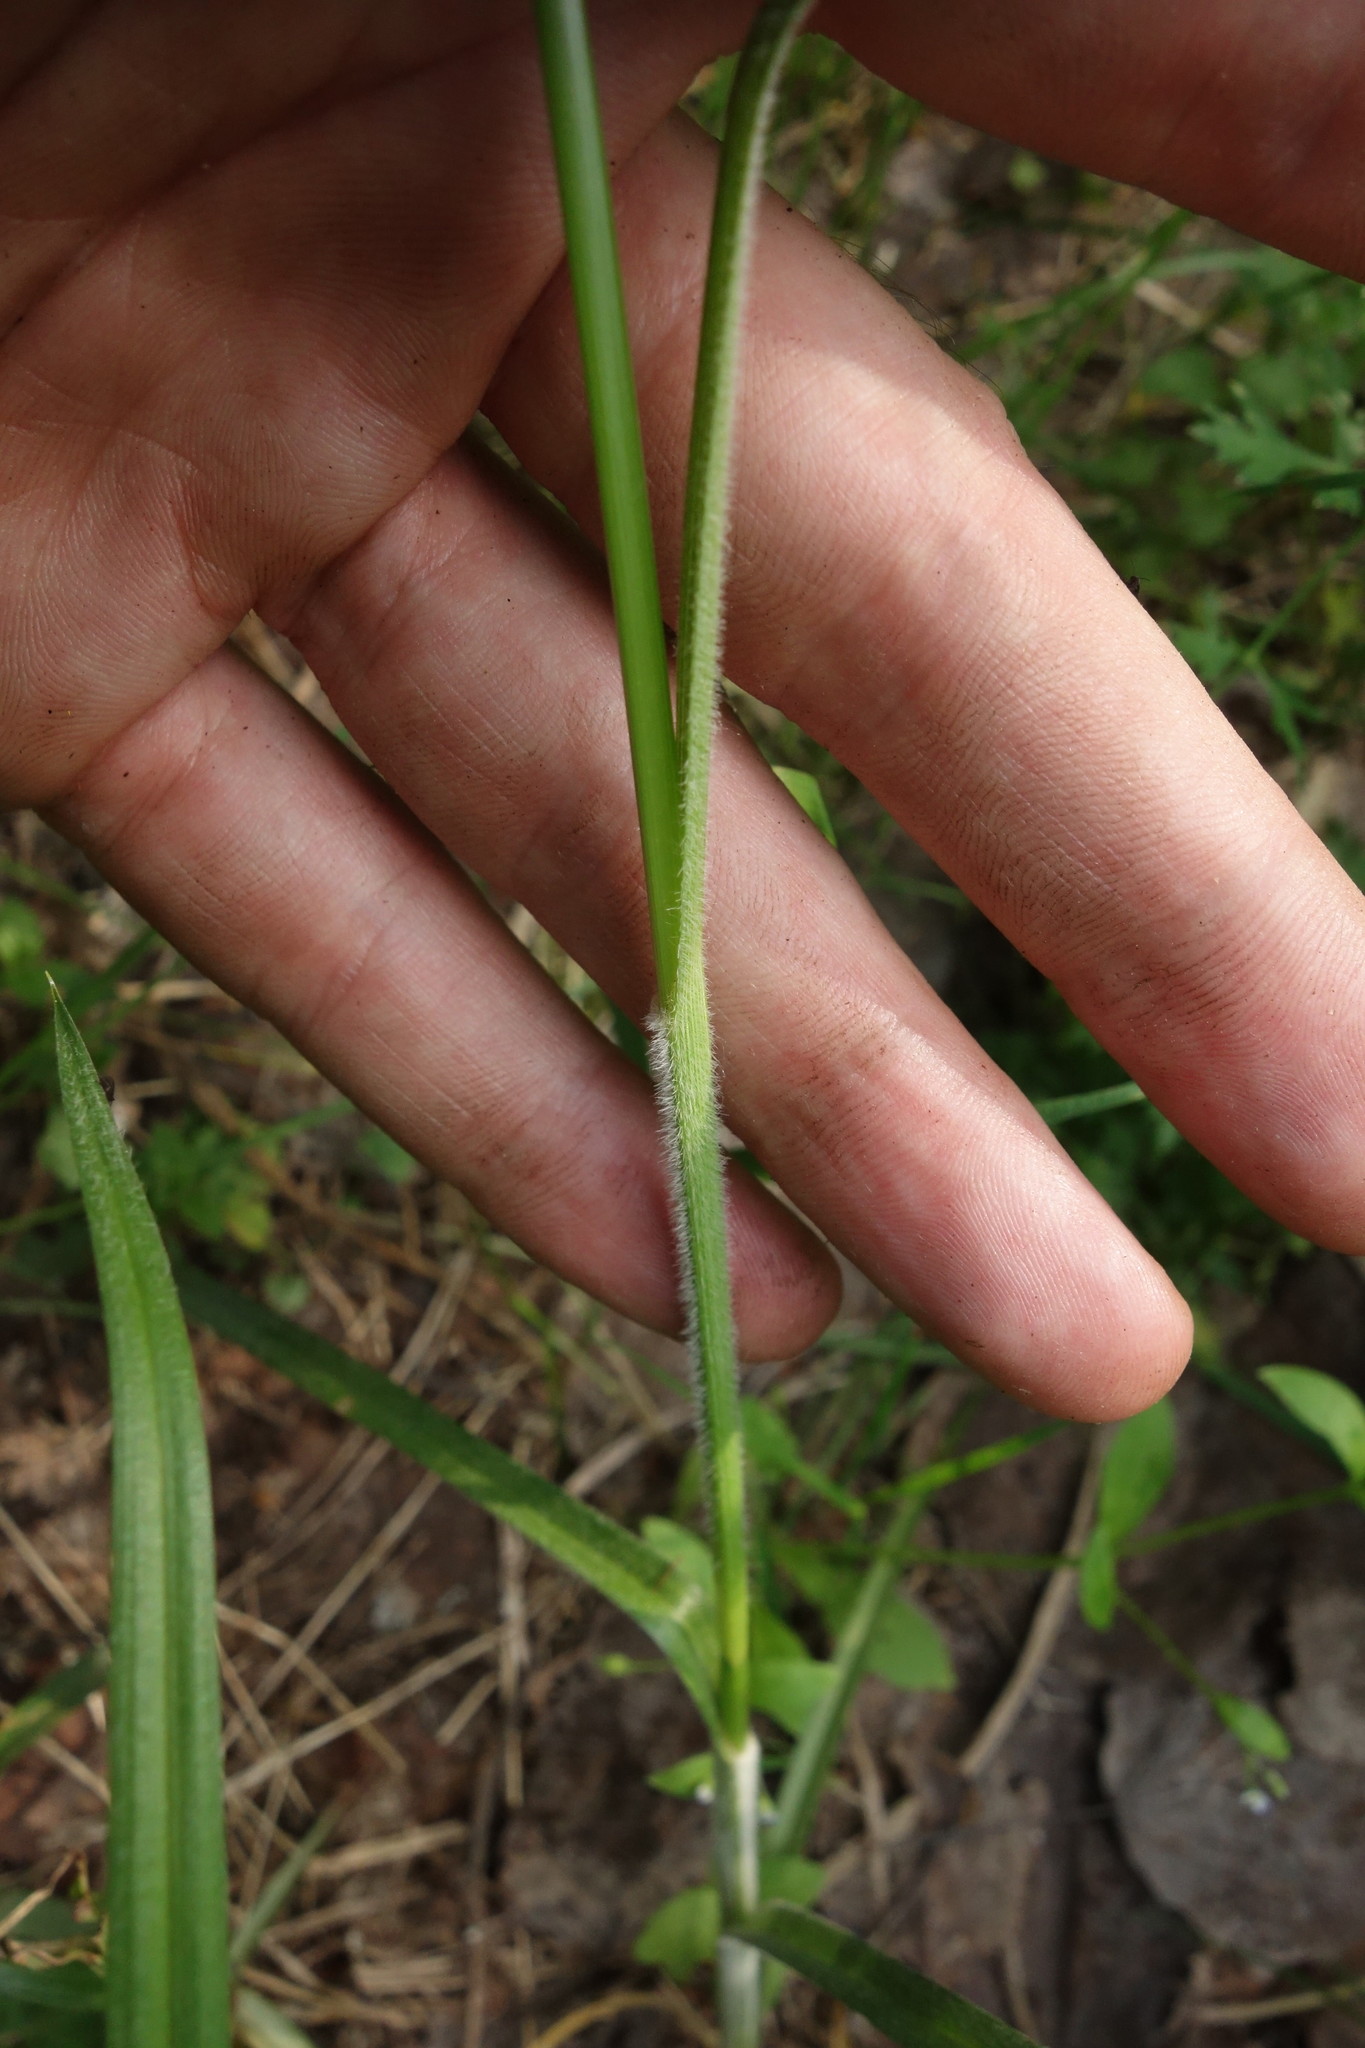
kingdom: Plantae
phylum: Tracheophyta
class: Liliopsida
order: Poales
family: Cyperaceae
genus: Carex
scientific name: Carex hirta
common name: Hairy sedge
